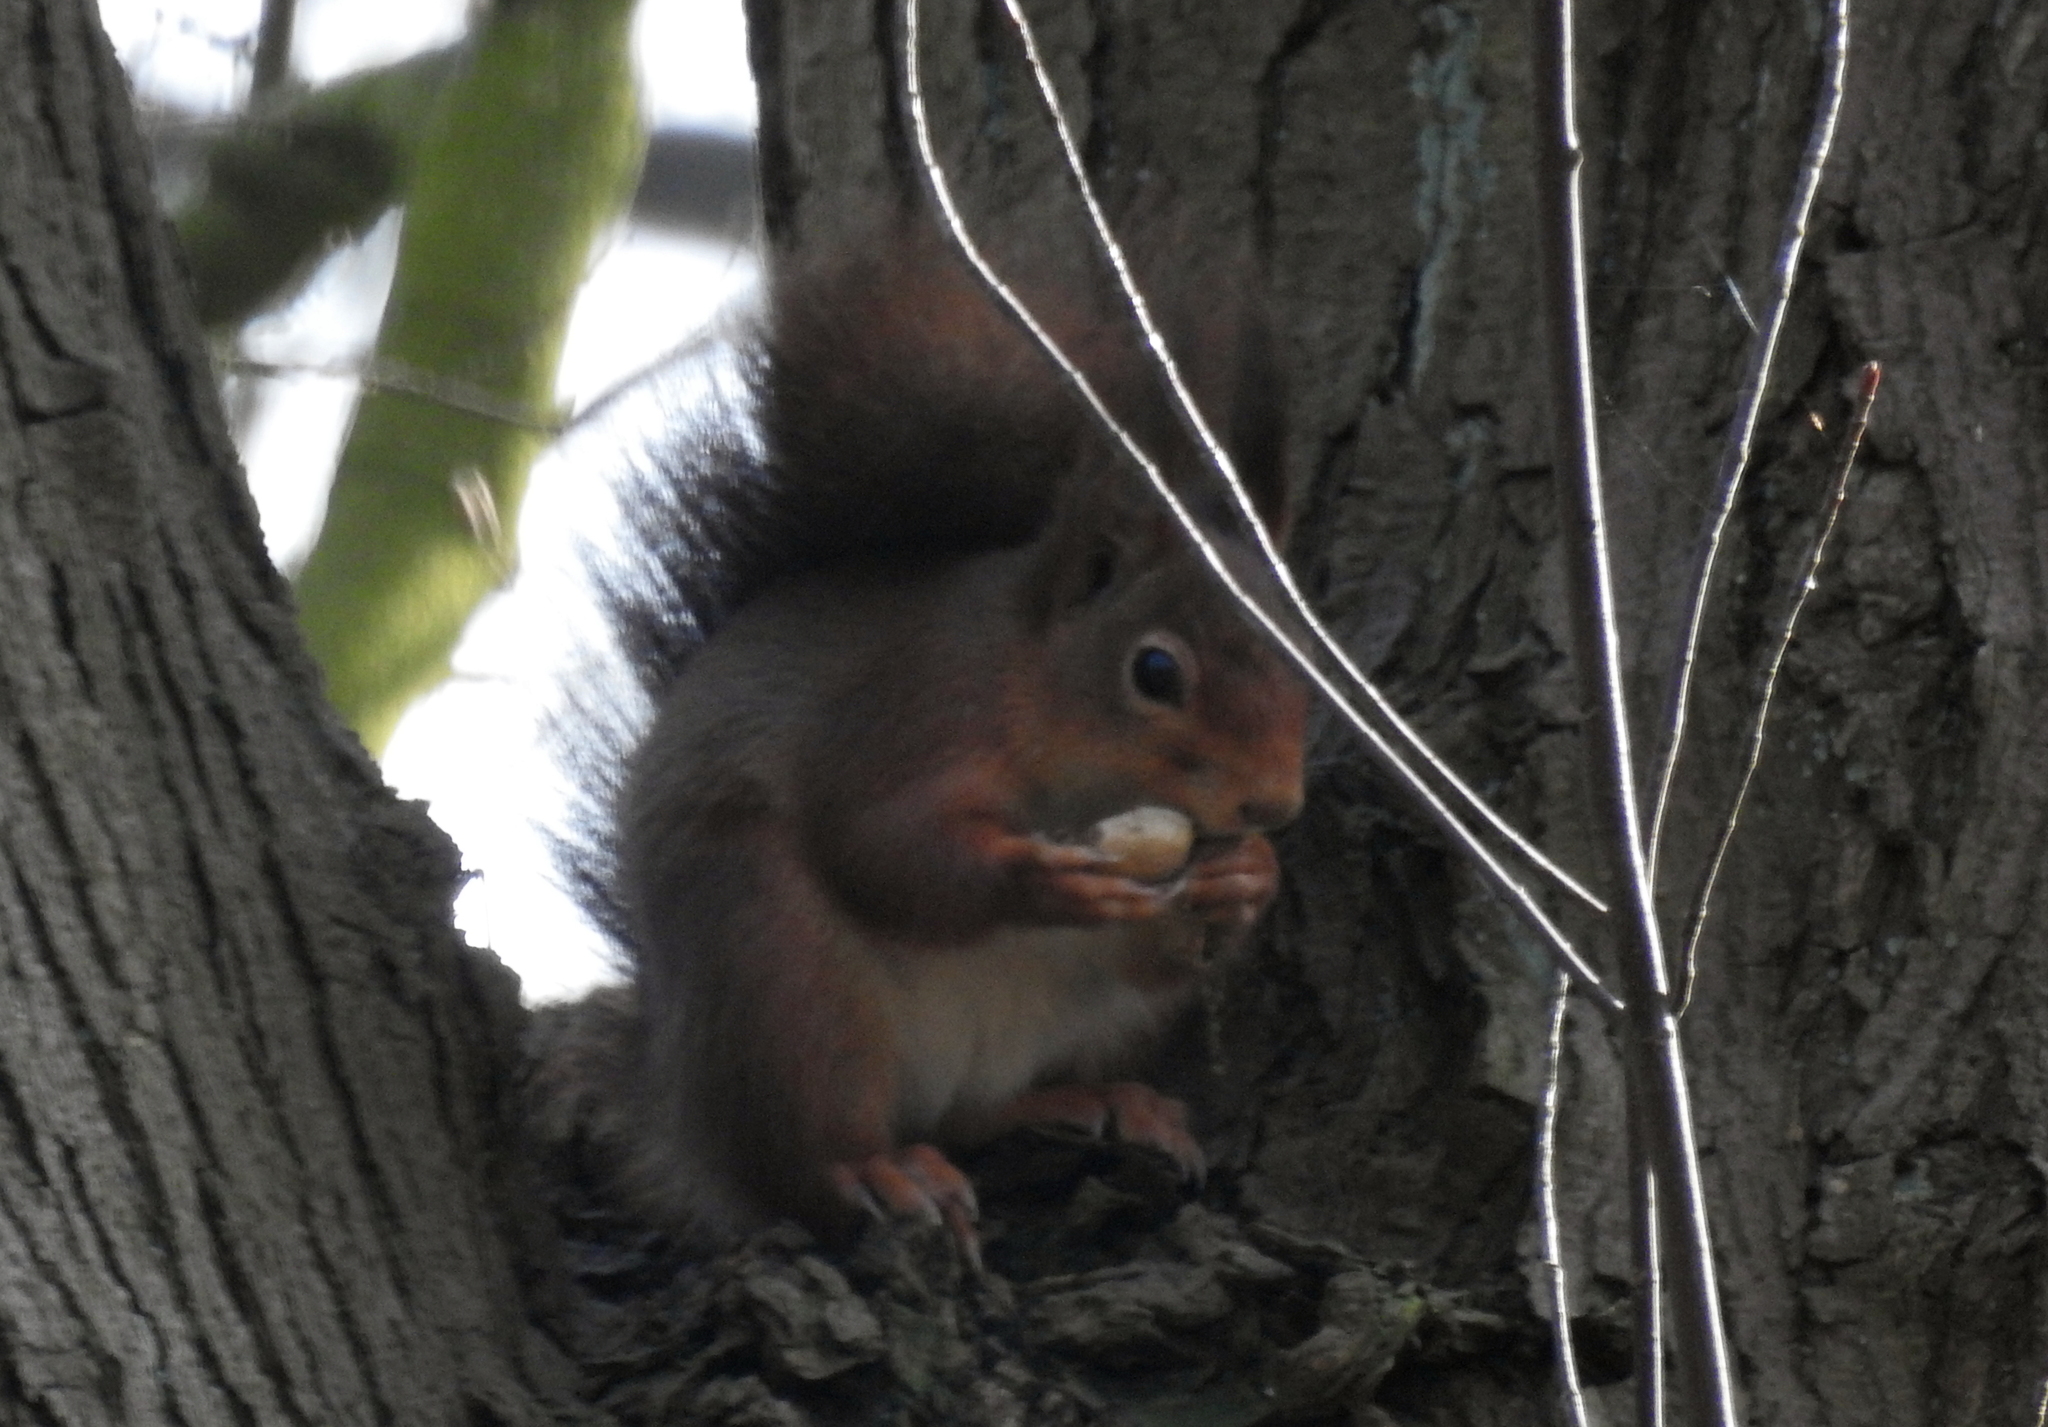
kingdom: Animalia
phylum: Chordata
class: Mammalia
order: Rodentia
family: Sciuridae
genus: Sciurus
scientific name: Sciurus vulgaris
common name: Eurasian red squirrel
